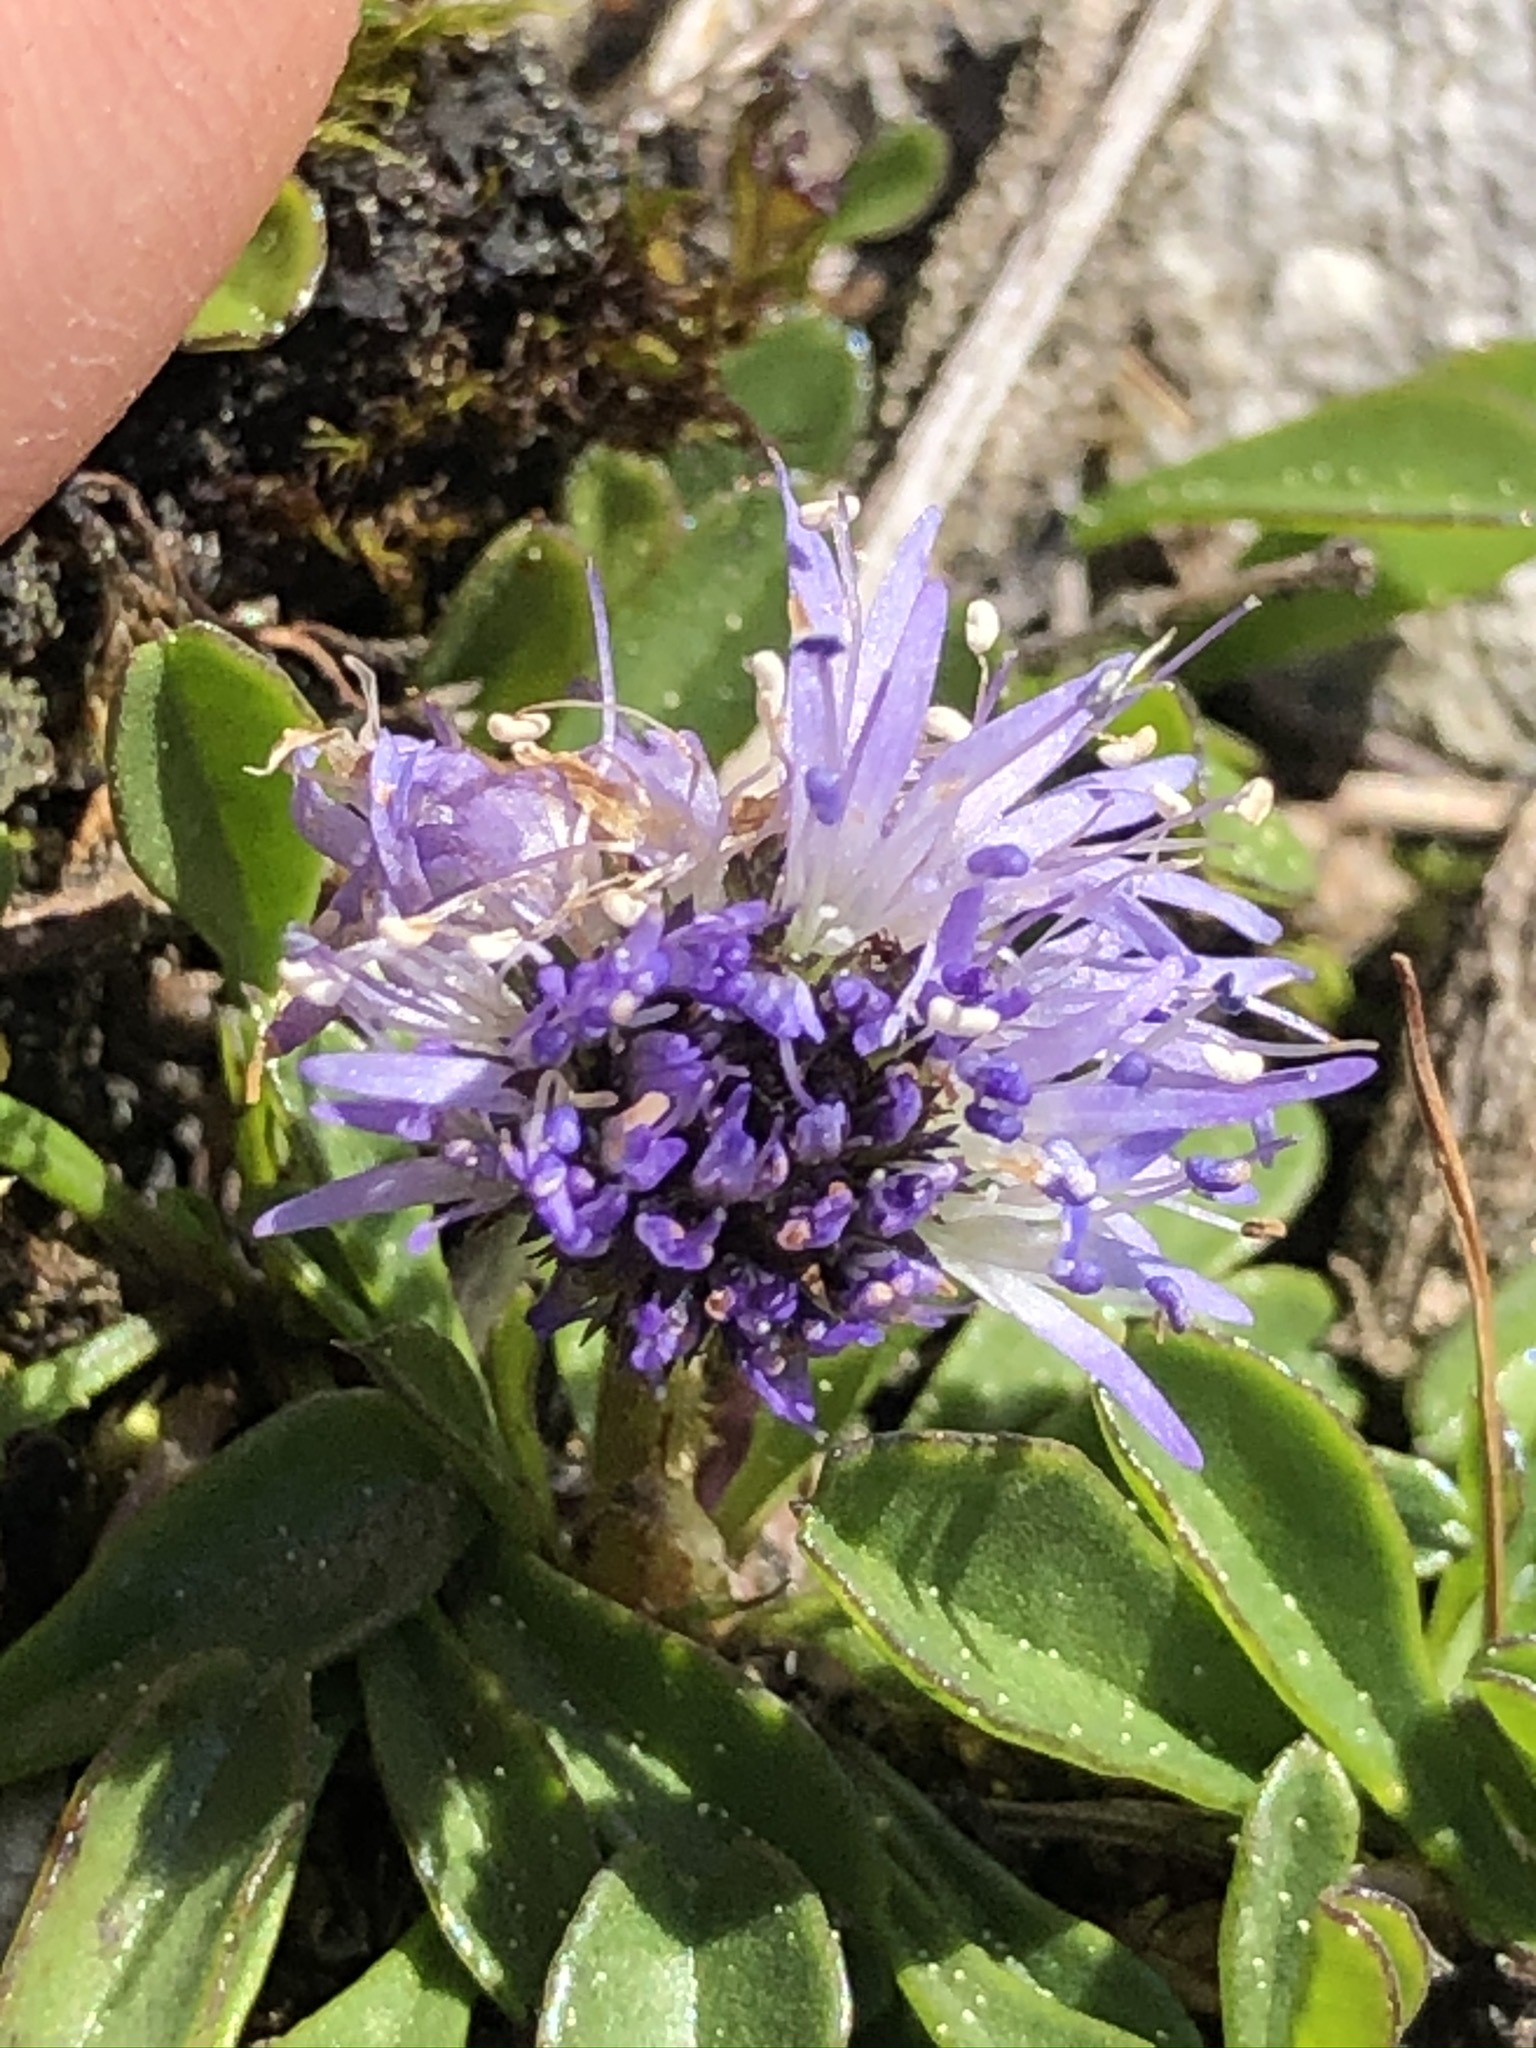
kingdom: Plantae
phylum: Tracheophyta
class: Magnoliopsida
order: Lamiales
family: Plantaginaceae
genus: Globularia
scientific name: Globularia cordifolia
